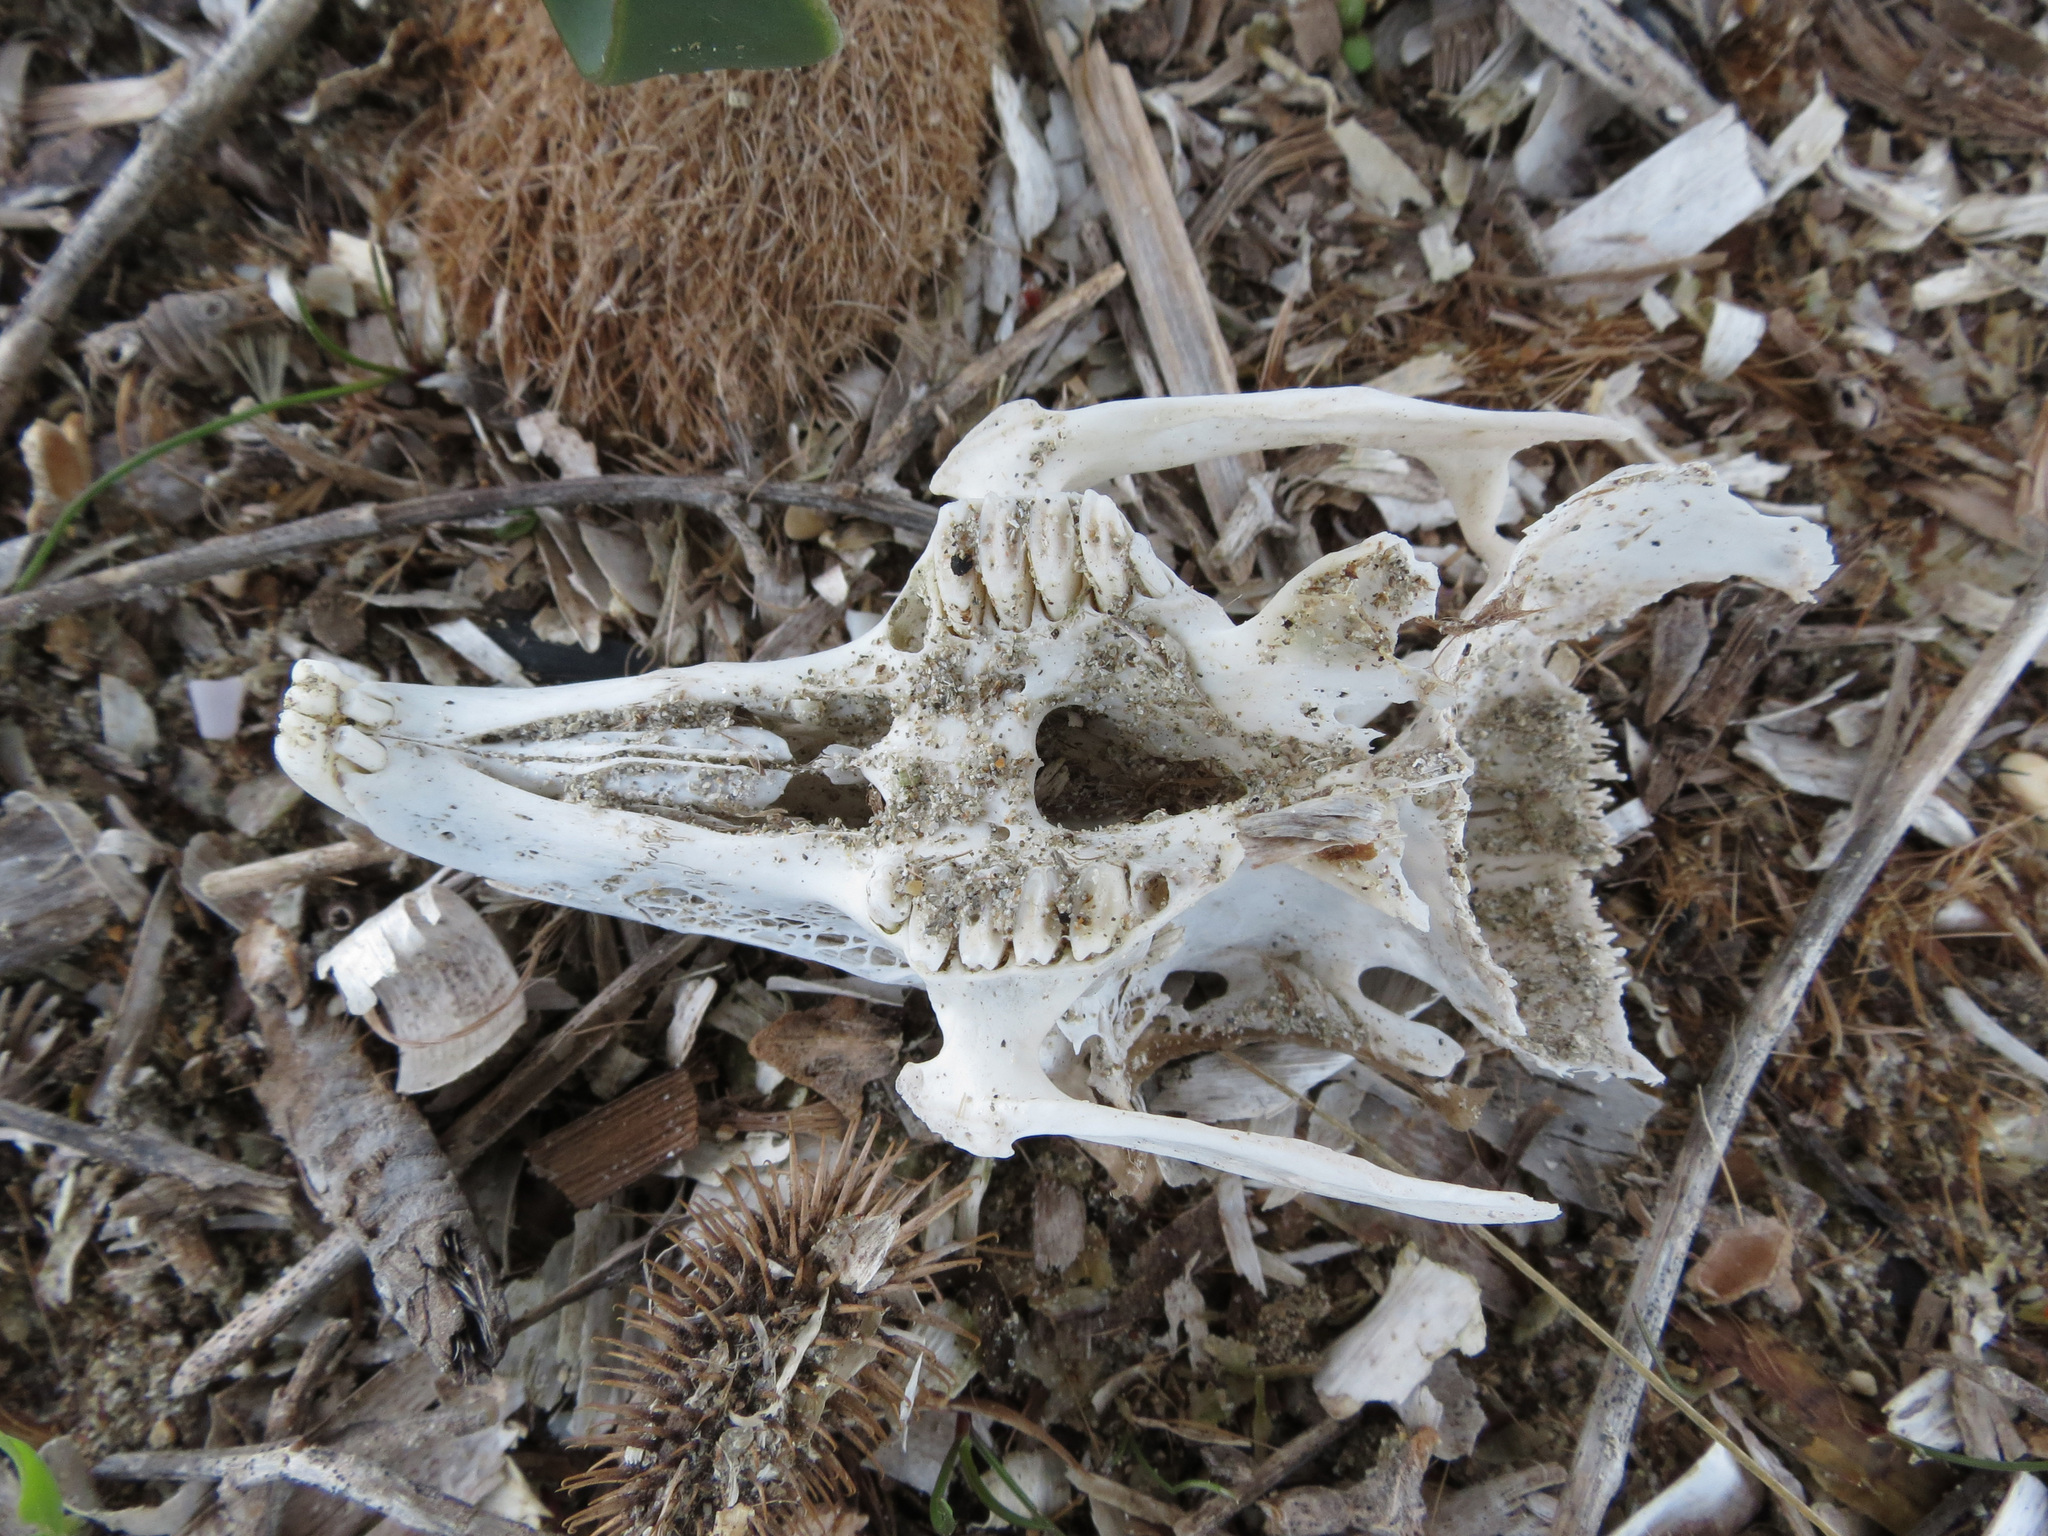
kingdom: Animalia
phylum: Chordata
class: Mammalia
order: Lagomorpha
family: Leporidae
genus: Oryctolagus
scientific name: Oryctolagus cuniculus
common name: European rabbit
